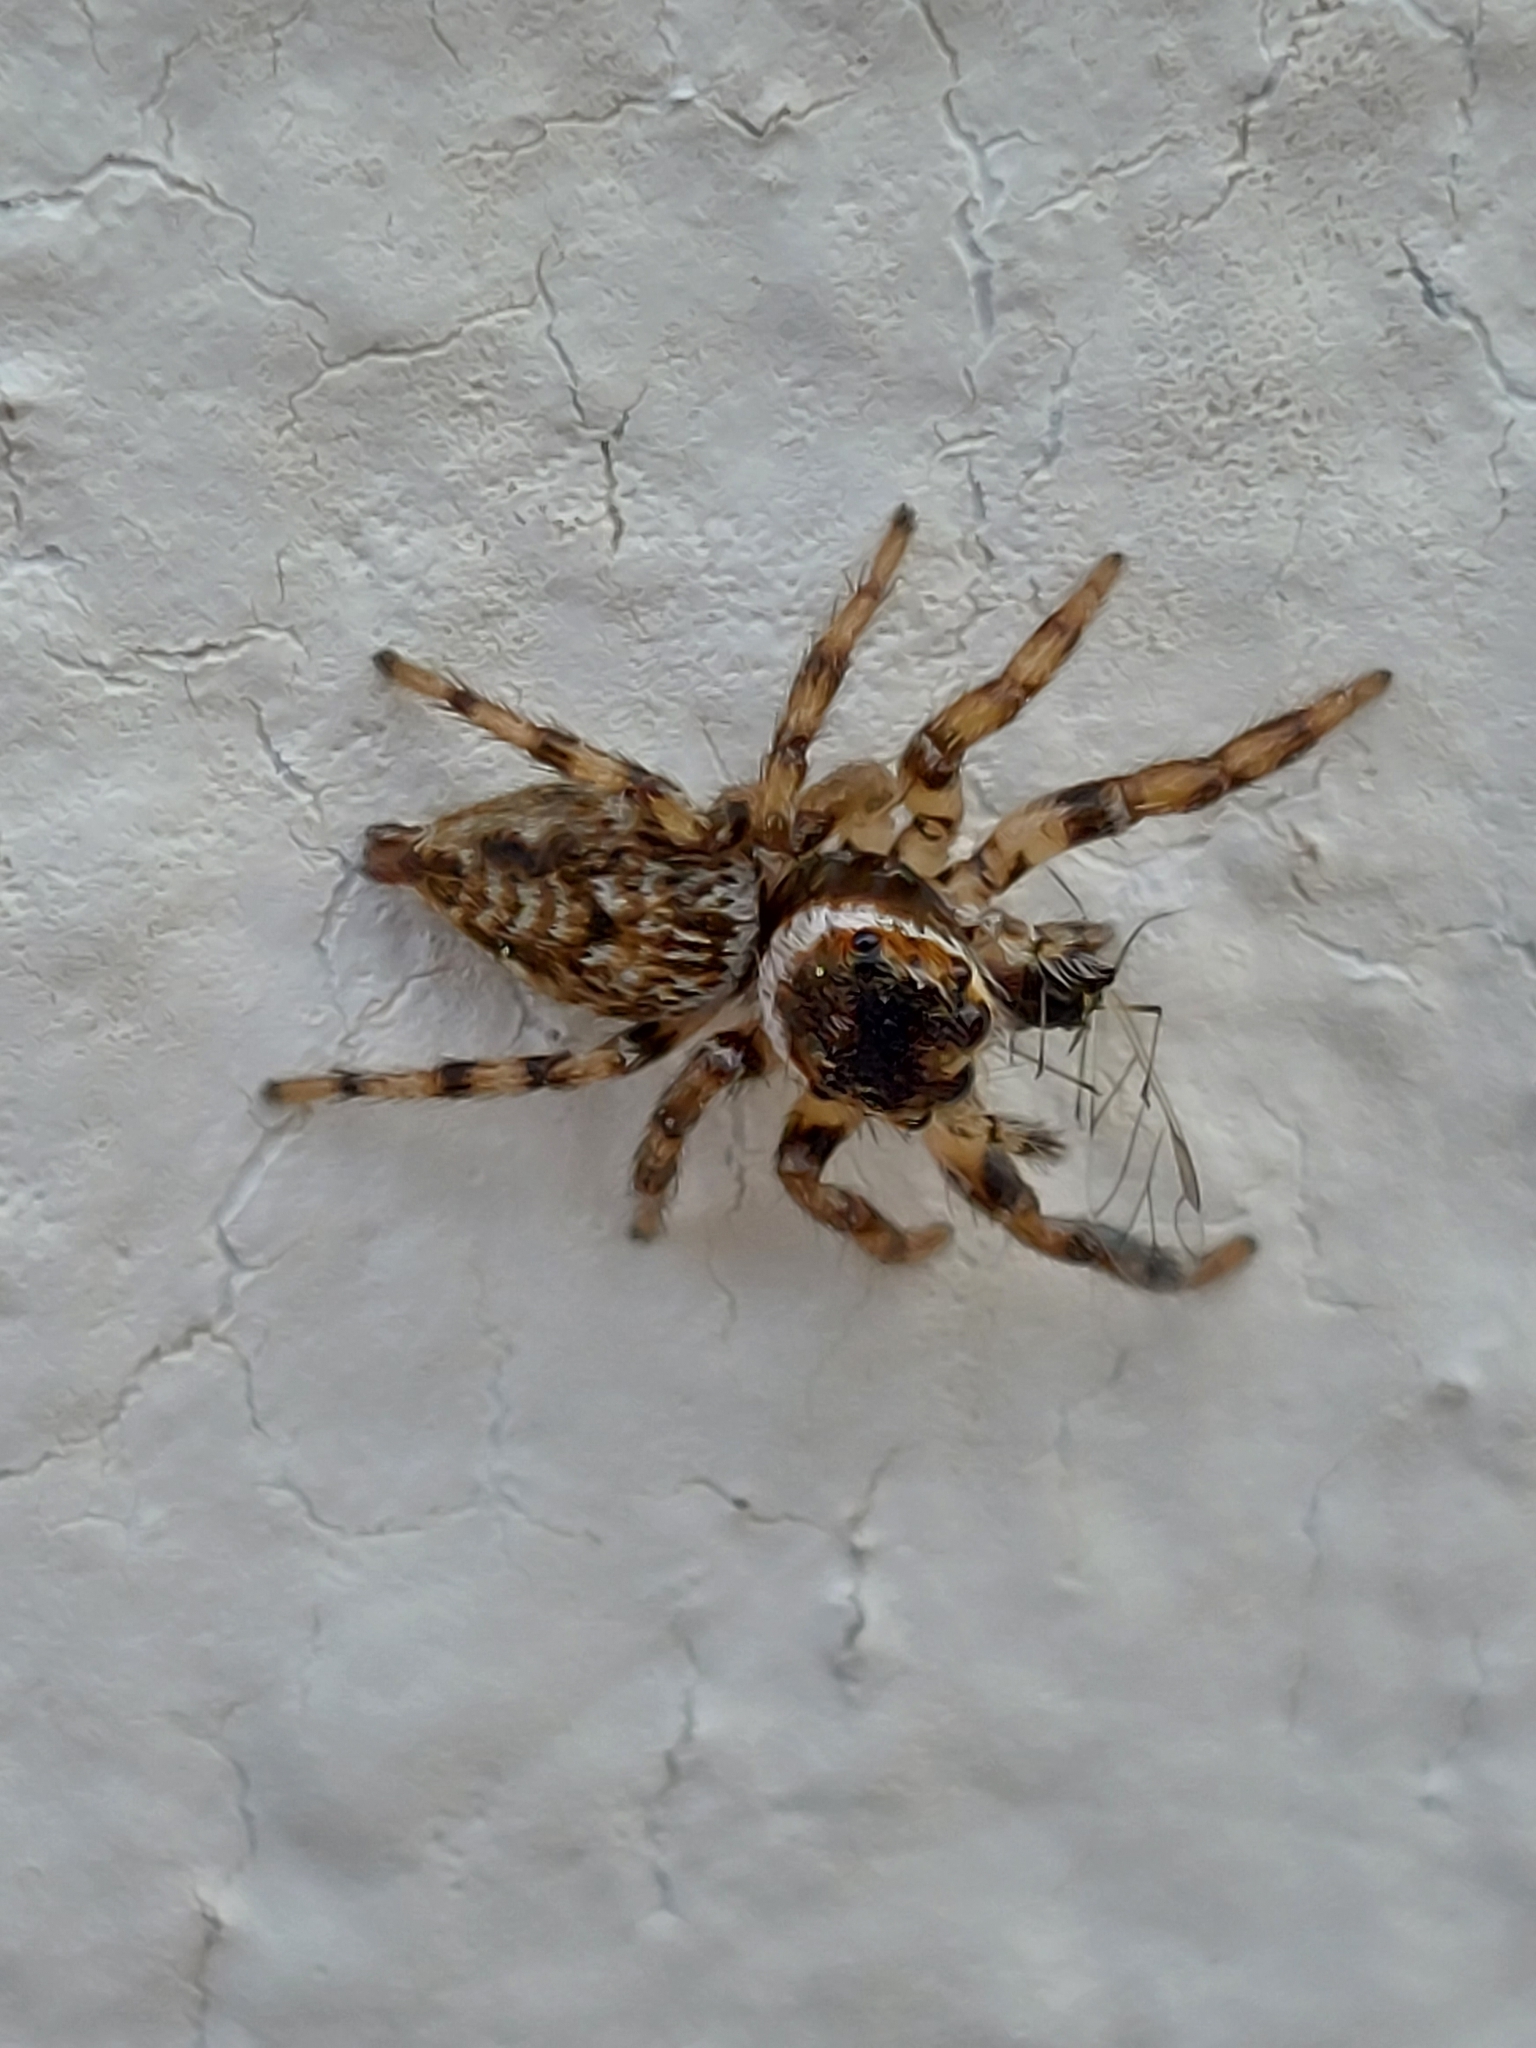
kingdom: Animalia
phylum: Arthropoda
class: Arachnida
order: Araneae
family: Salticidae
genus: Evarcha
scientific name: Evarcha jucunda
